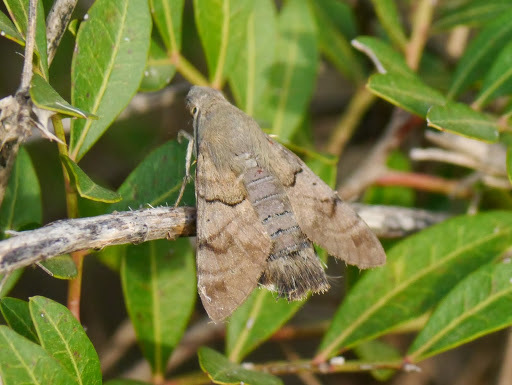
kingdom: Animalia
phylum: Arthropoda
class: Insecta
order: Lepidoptera
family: Sphingidae
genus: Macroglossum
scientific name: Macroglossum stellatarum
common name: Humming-bird hawk-moth
